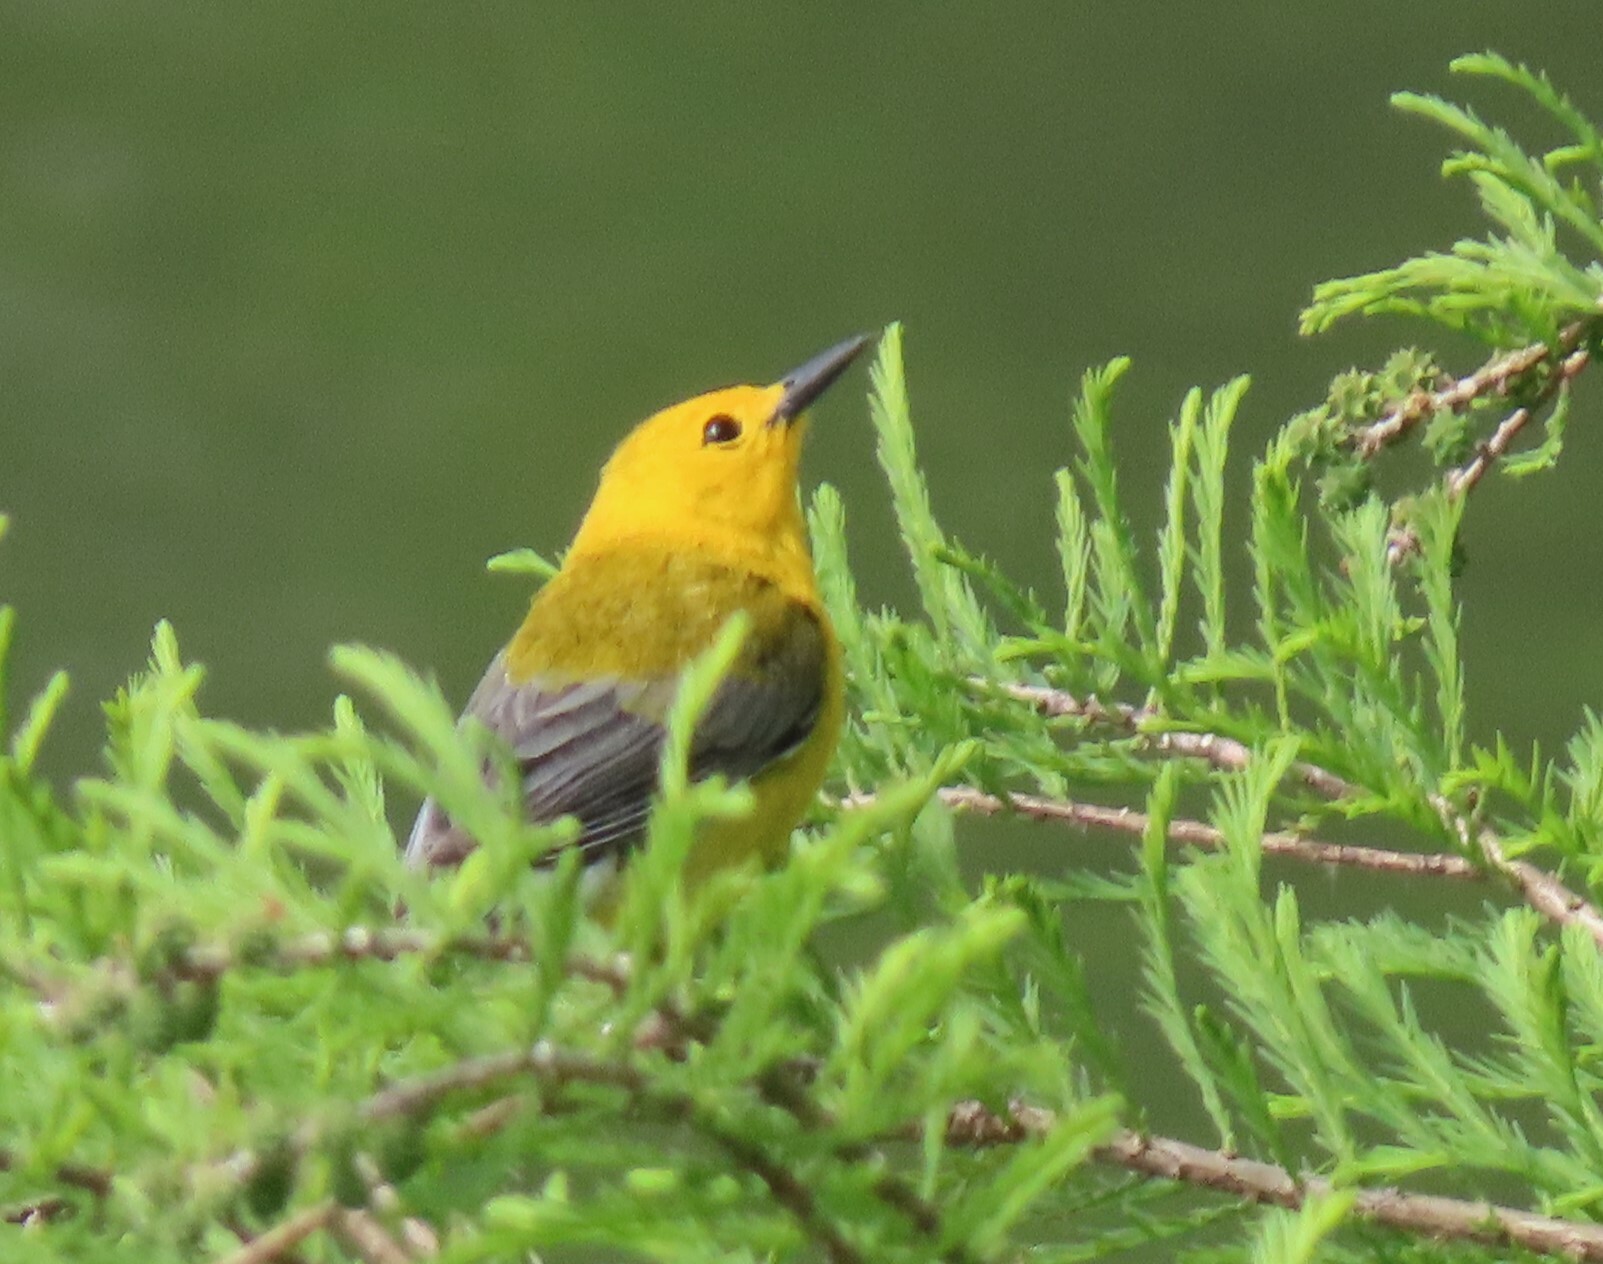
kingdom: Animalia
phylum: Chordata
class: Aves
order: Passeriformes
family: Parulidae
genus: Protonotaria
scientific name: Protonotaria citrea
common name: Prothonotary warbler
